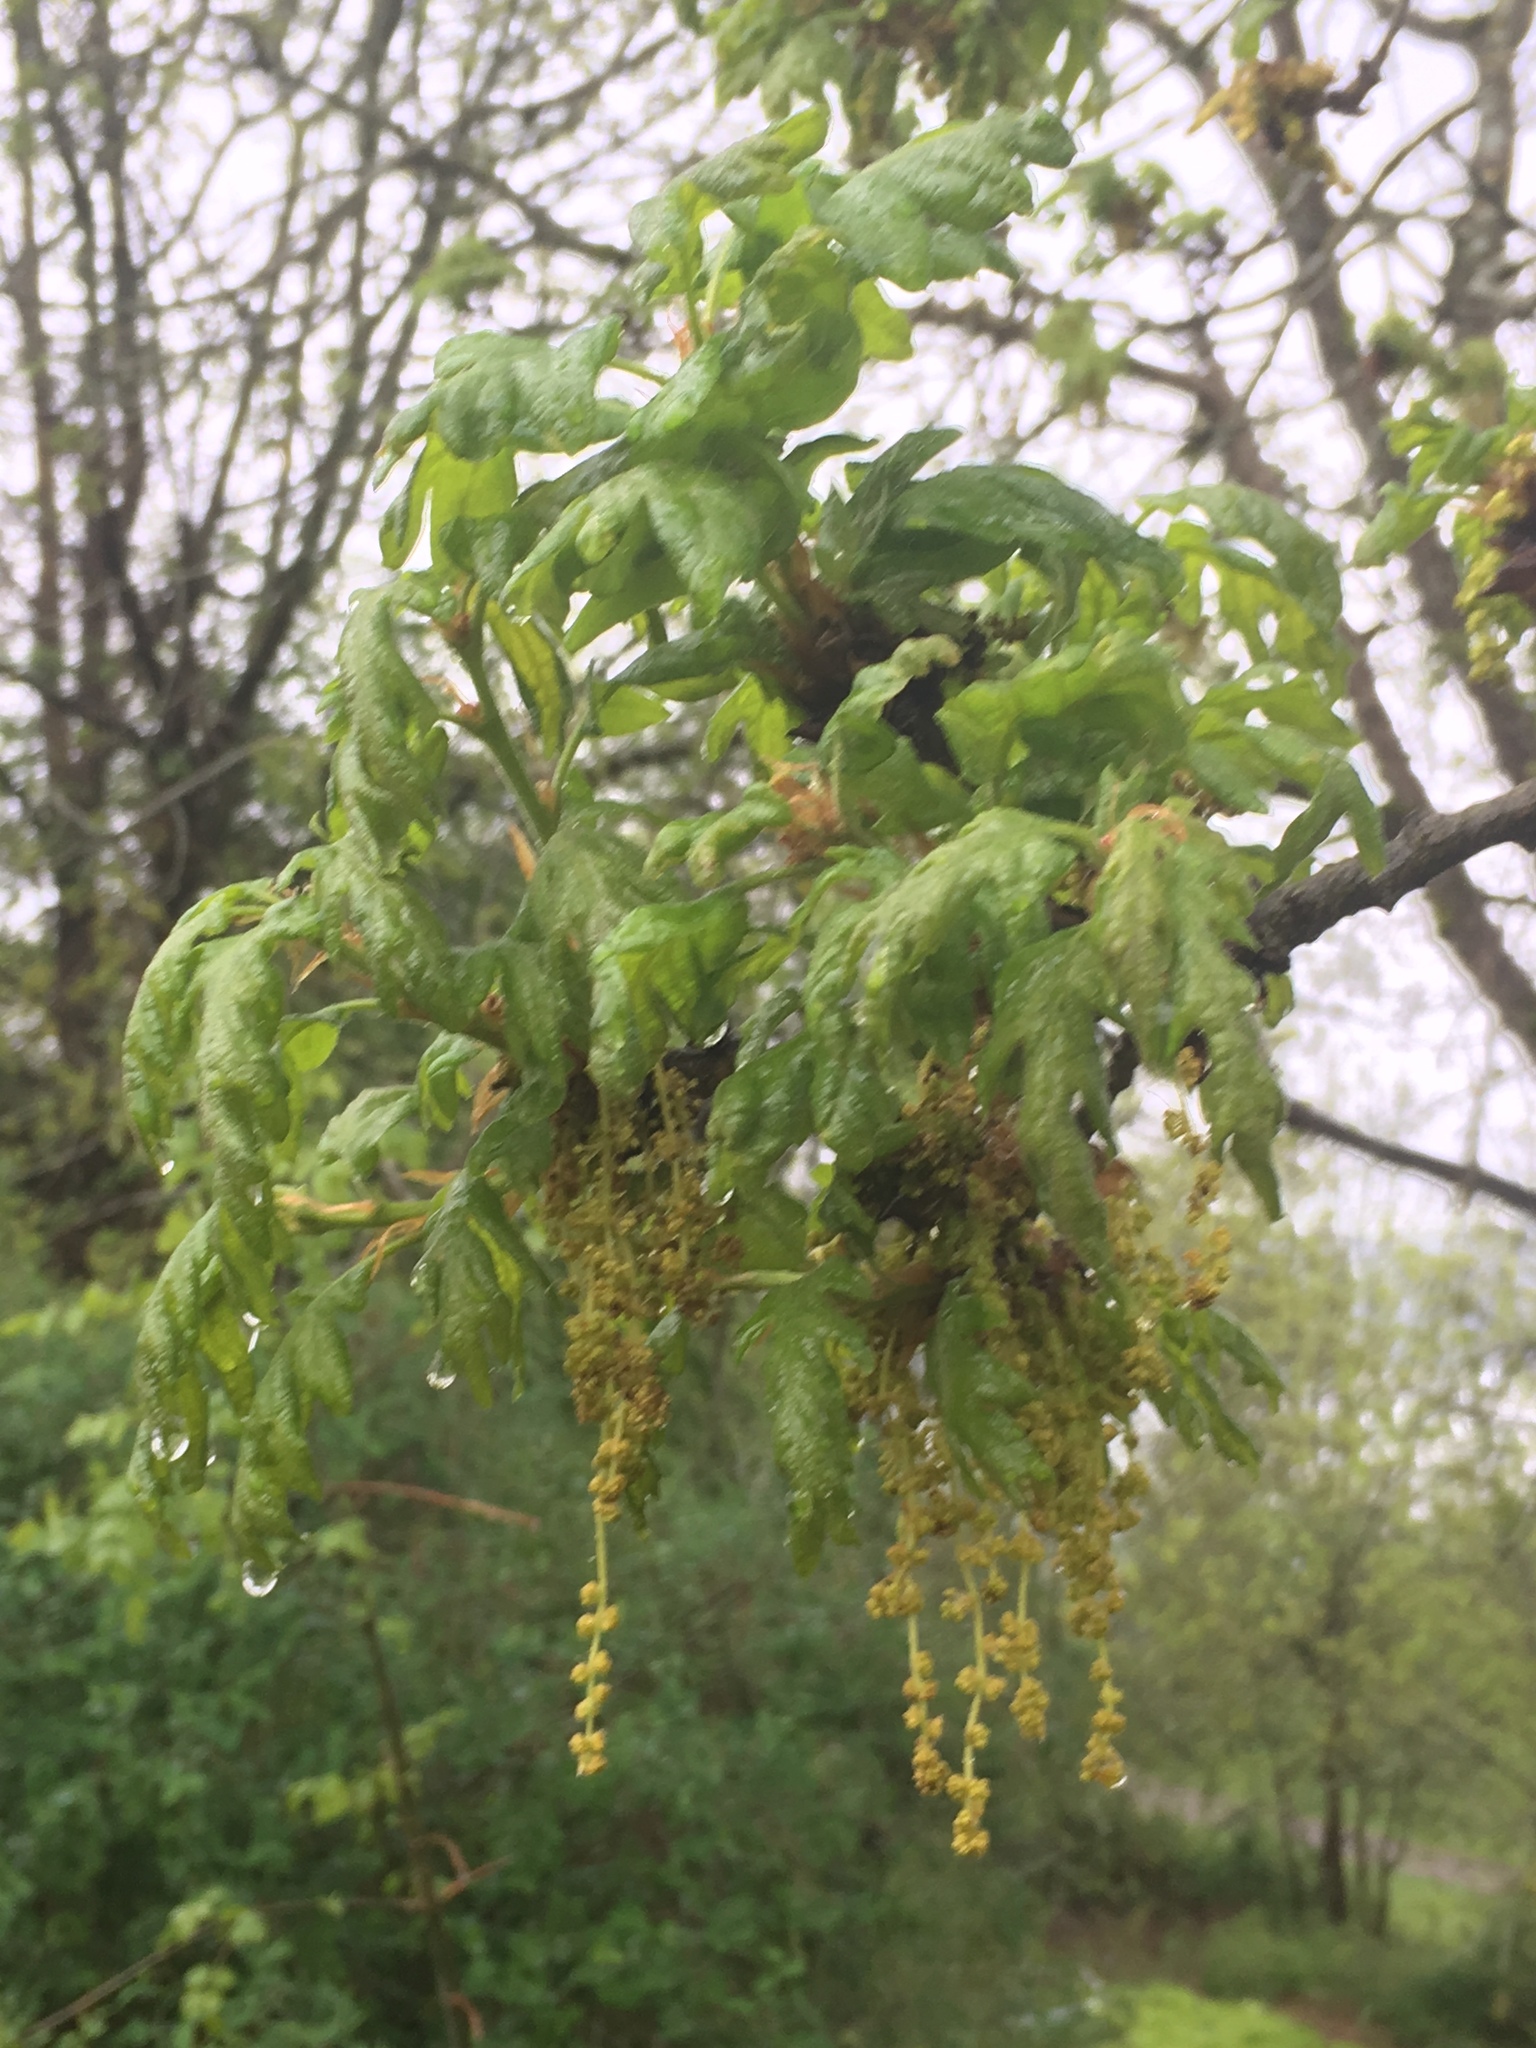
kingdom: Plantae
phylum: Tracheophyta
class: Magnoliopsida
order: Fagales
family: Fagaceae
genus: Quercus
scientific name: Quercus garryana
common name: Garry oak
